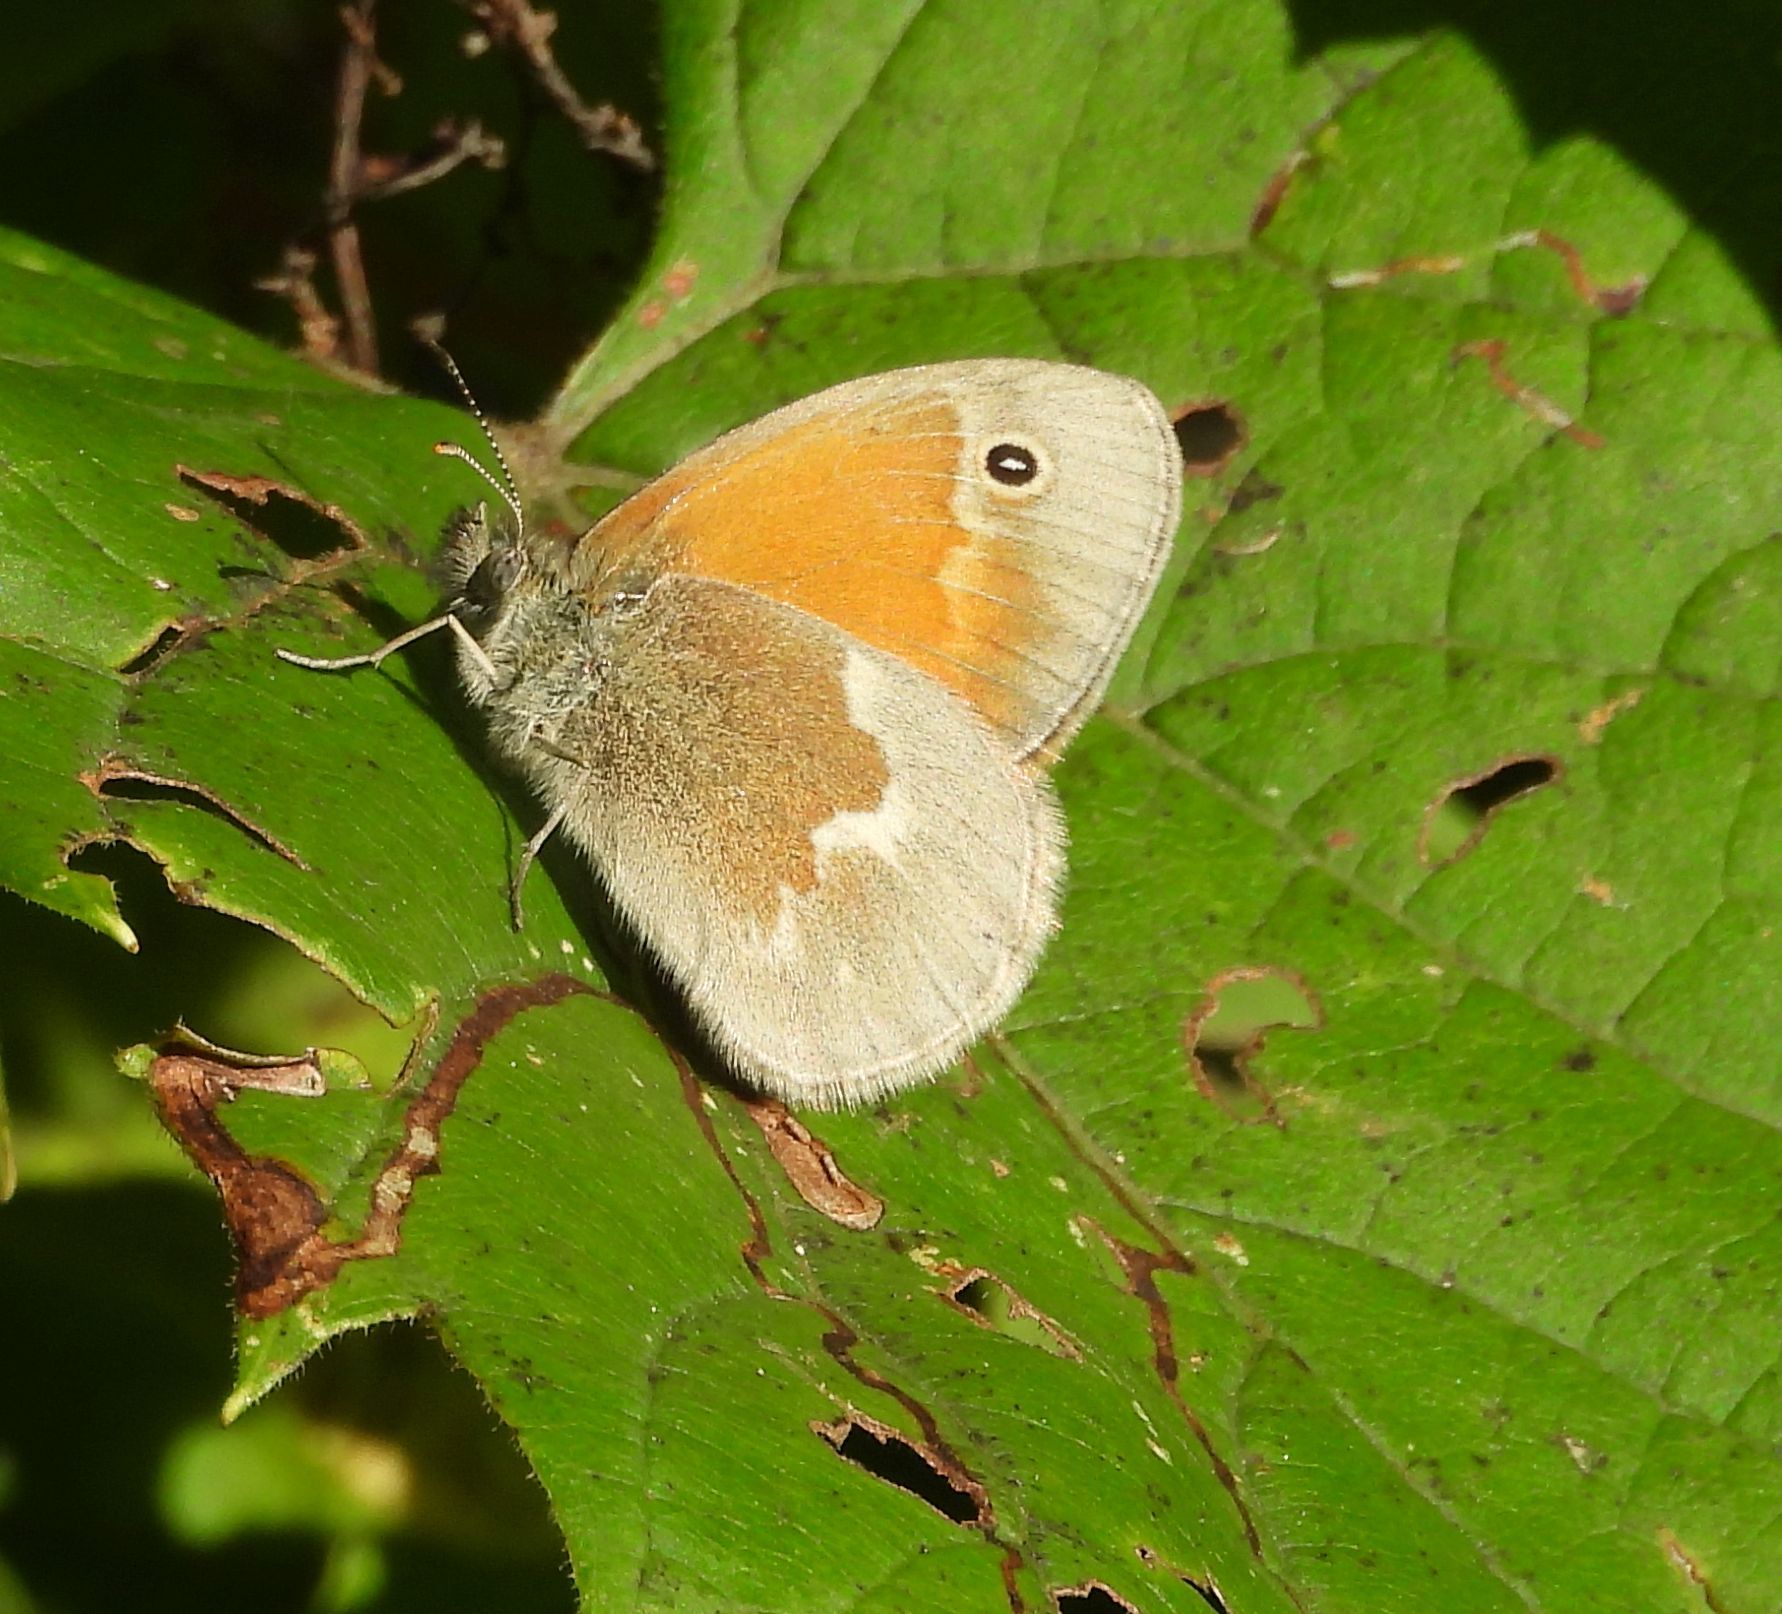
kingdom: Animalia
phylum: Arthropoda
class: Insecta
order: Lepidoptera
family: Nymphalidae
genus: Coenonympha
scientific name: Coenonympha california
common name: Common ringlet
